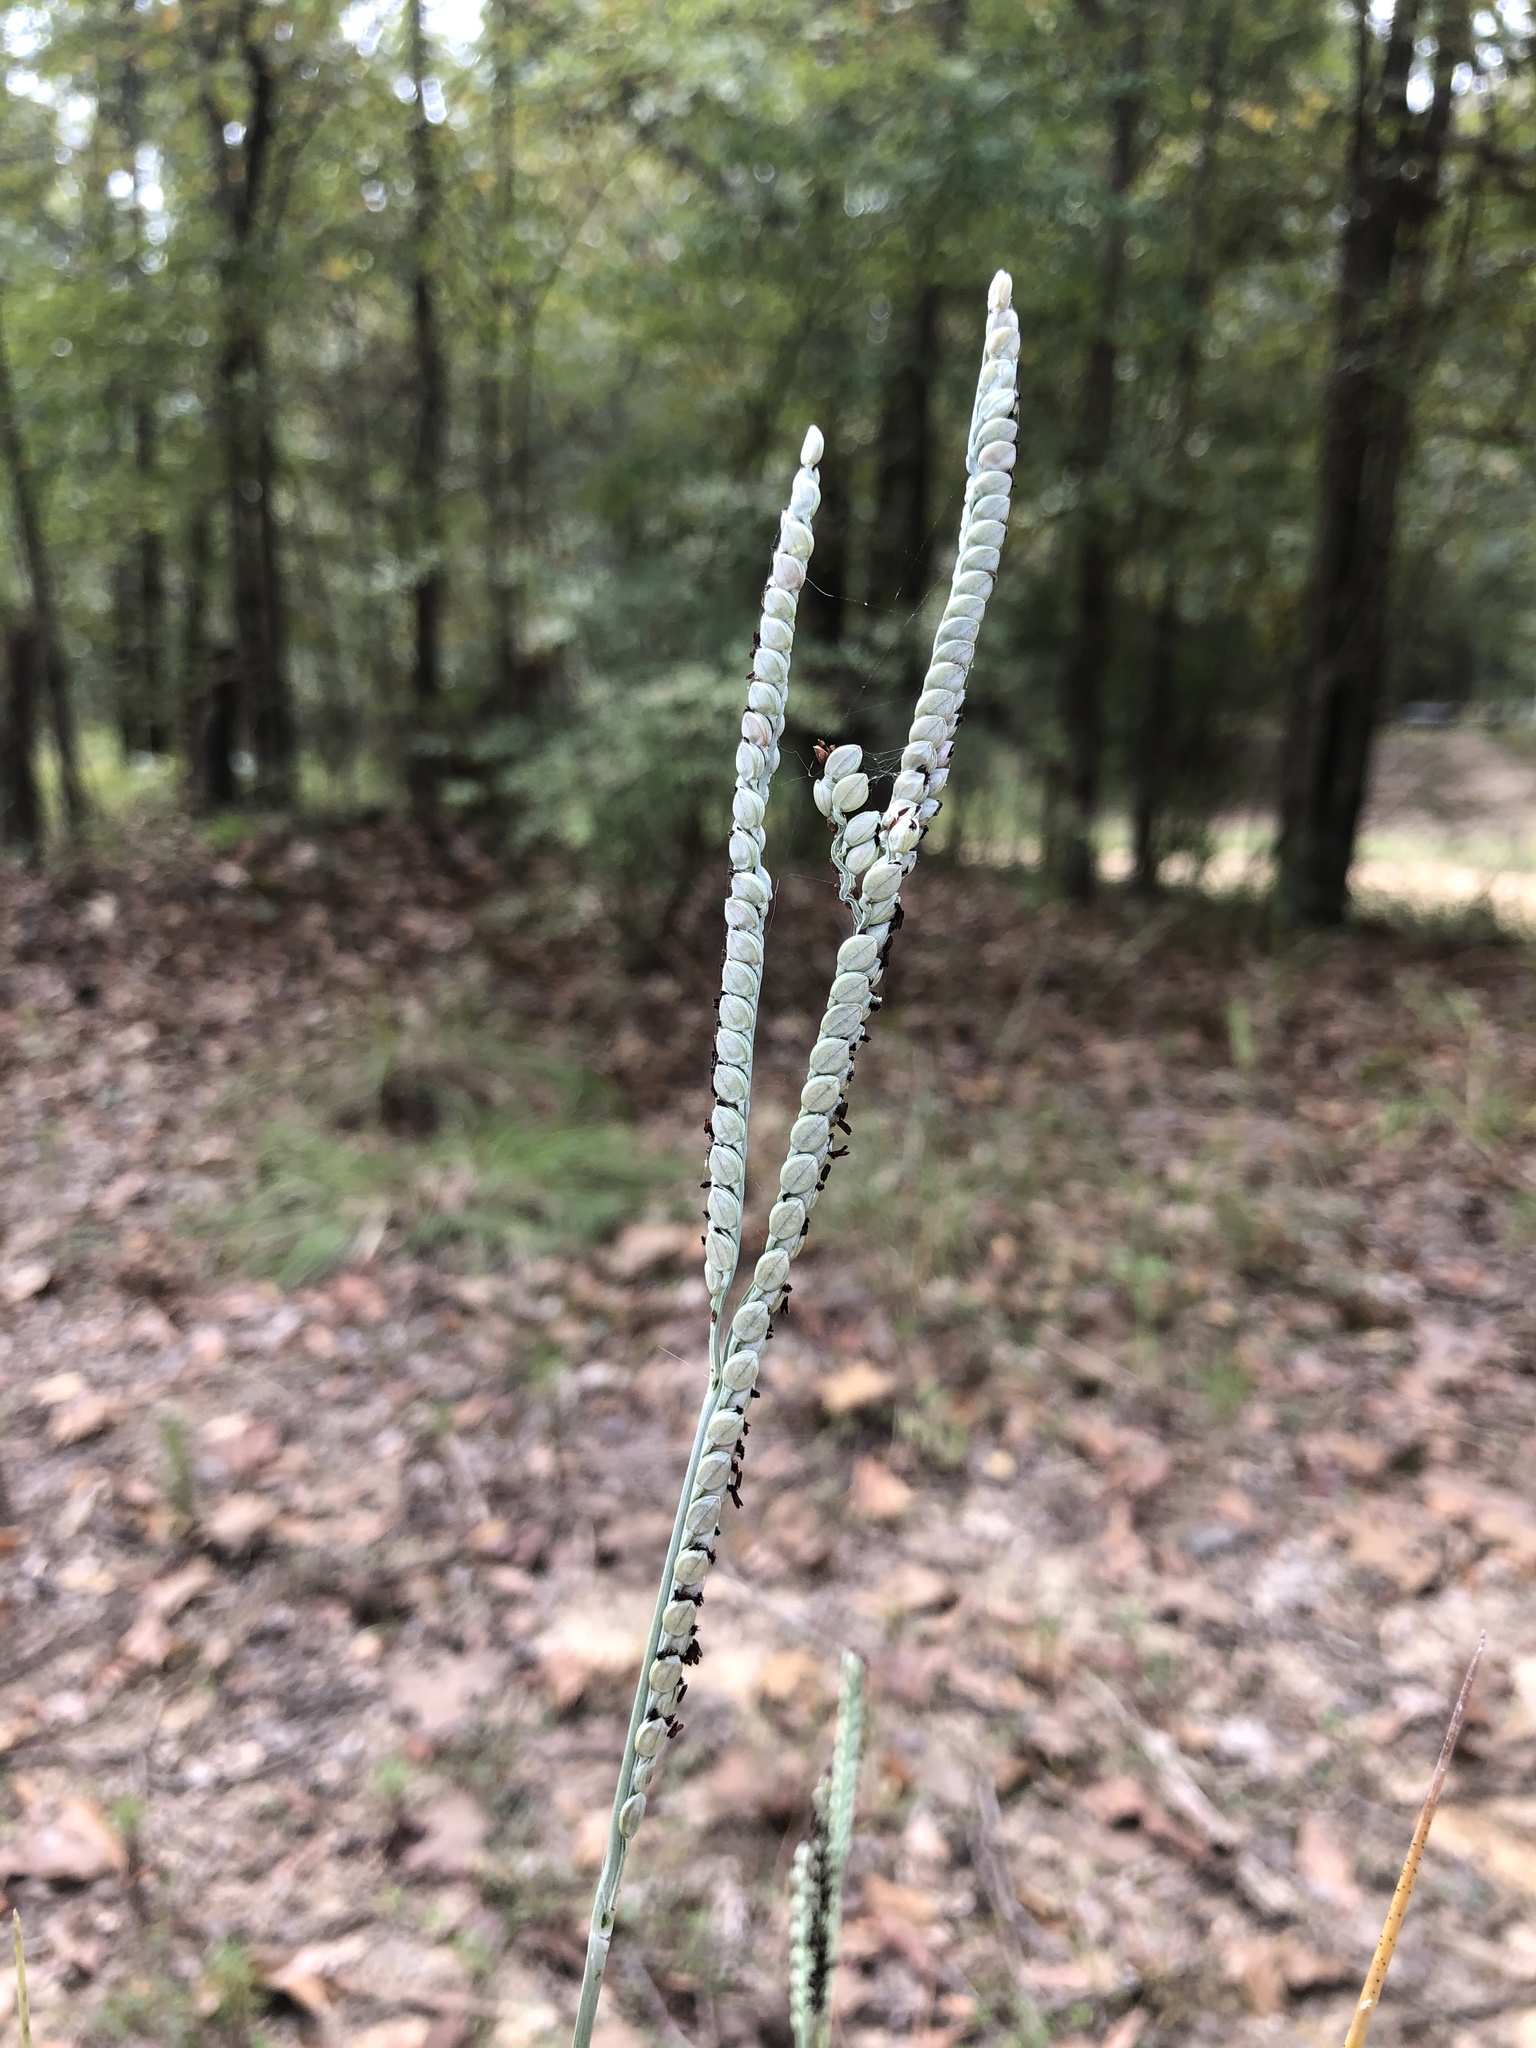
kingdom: Plantae
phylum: Tracheophyta
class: Liliopsida
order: Poales
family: Poaceae
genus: Paspalum
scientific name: Paspalum floridanum
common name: Florida paspalum
